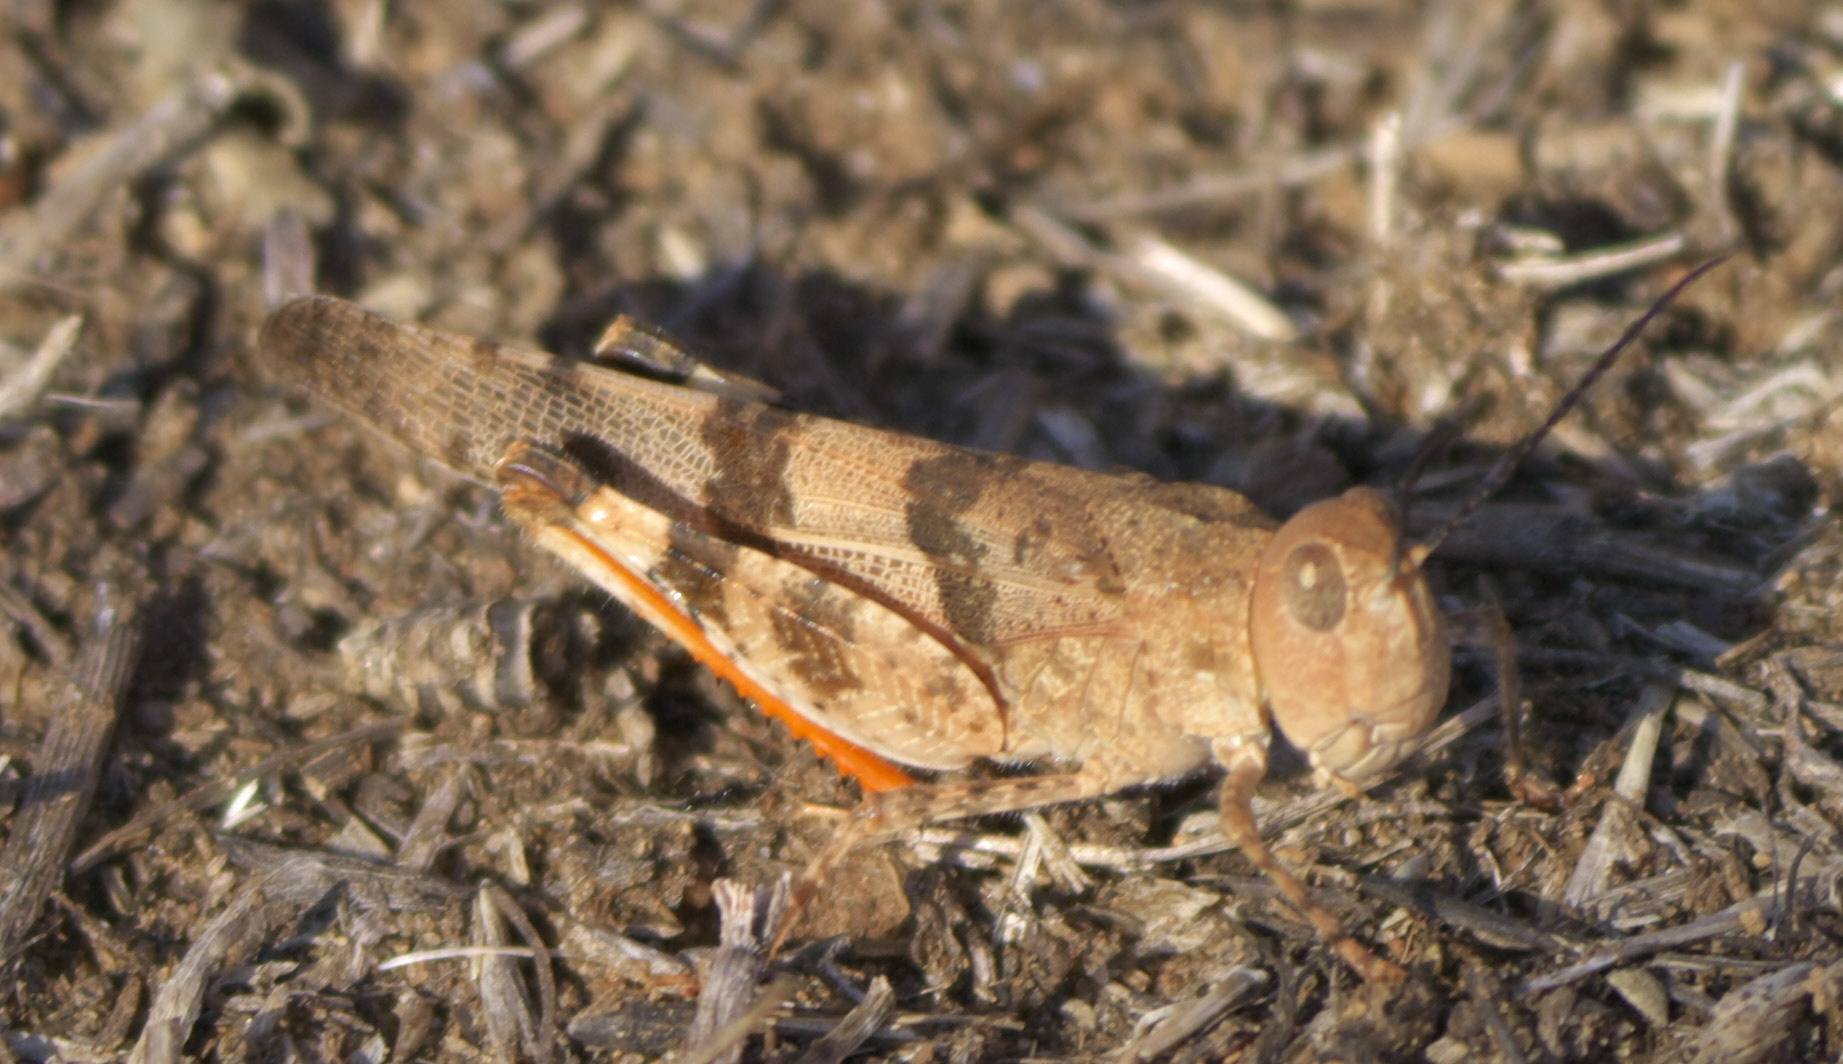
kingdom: Animalia
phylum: Arthropoda
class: Insecta
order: Orthoptera
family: Acrididae
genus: Spharagemon
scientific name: Spharagemon equale
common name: Orange-legged grasshopper
